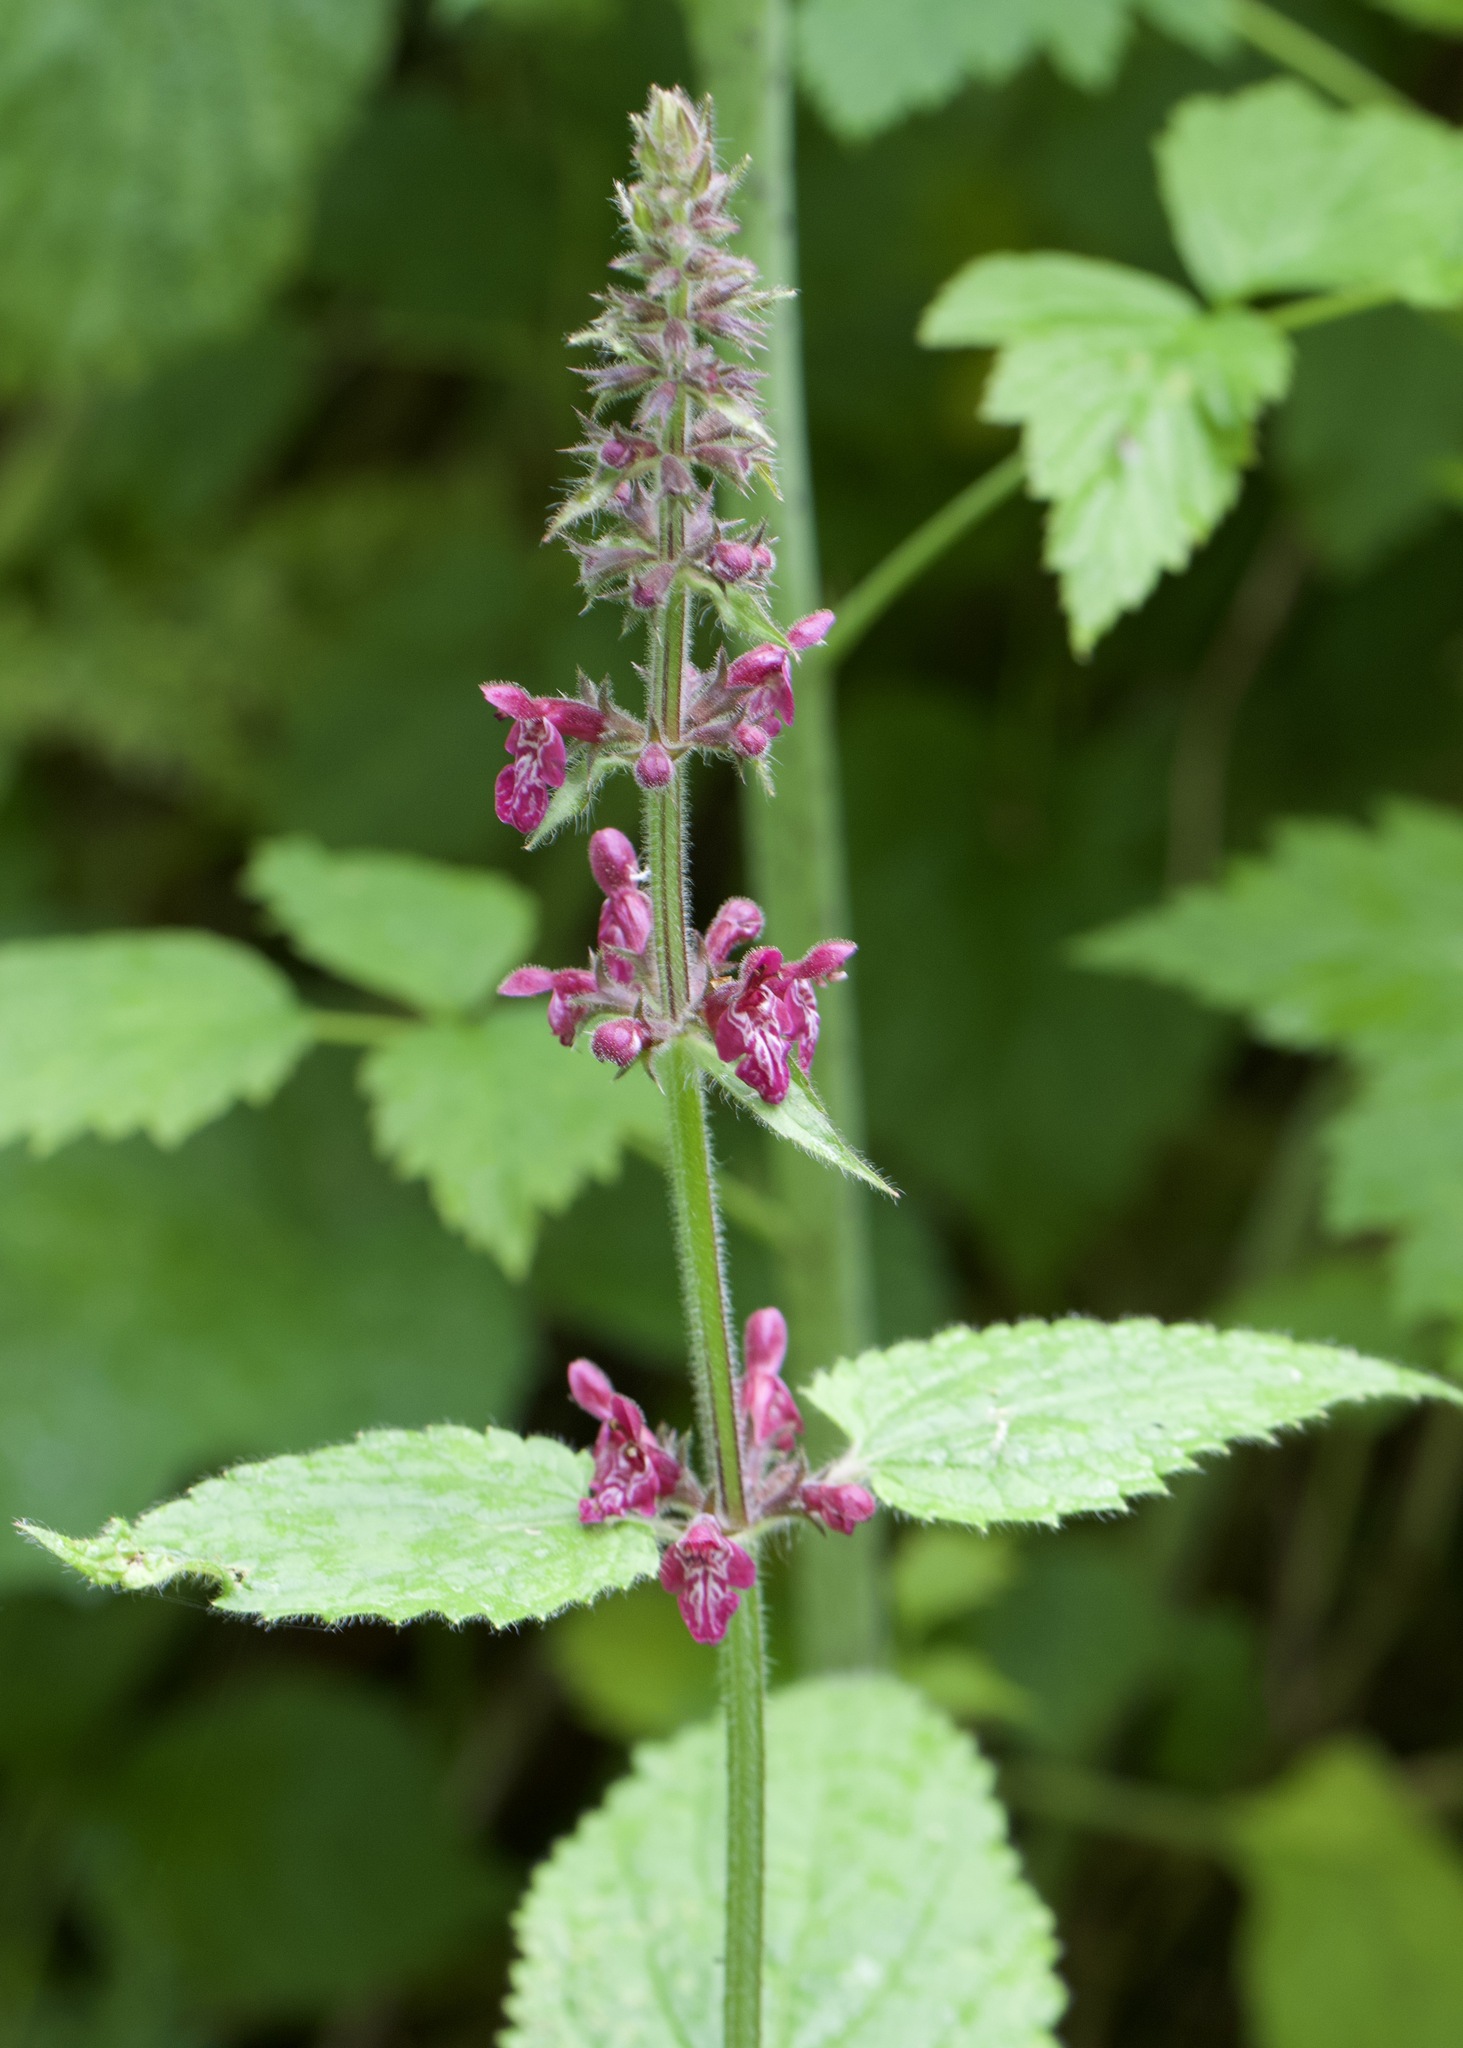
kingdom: Plantae
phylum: Tracheophyta
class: Magnoliopsida
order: Lamiales
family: Lamiaceae
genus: Stachys
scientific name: Stachys sylvatica
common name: Hedge woundwort
